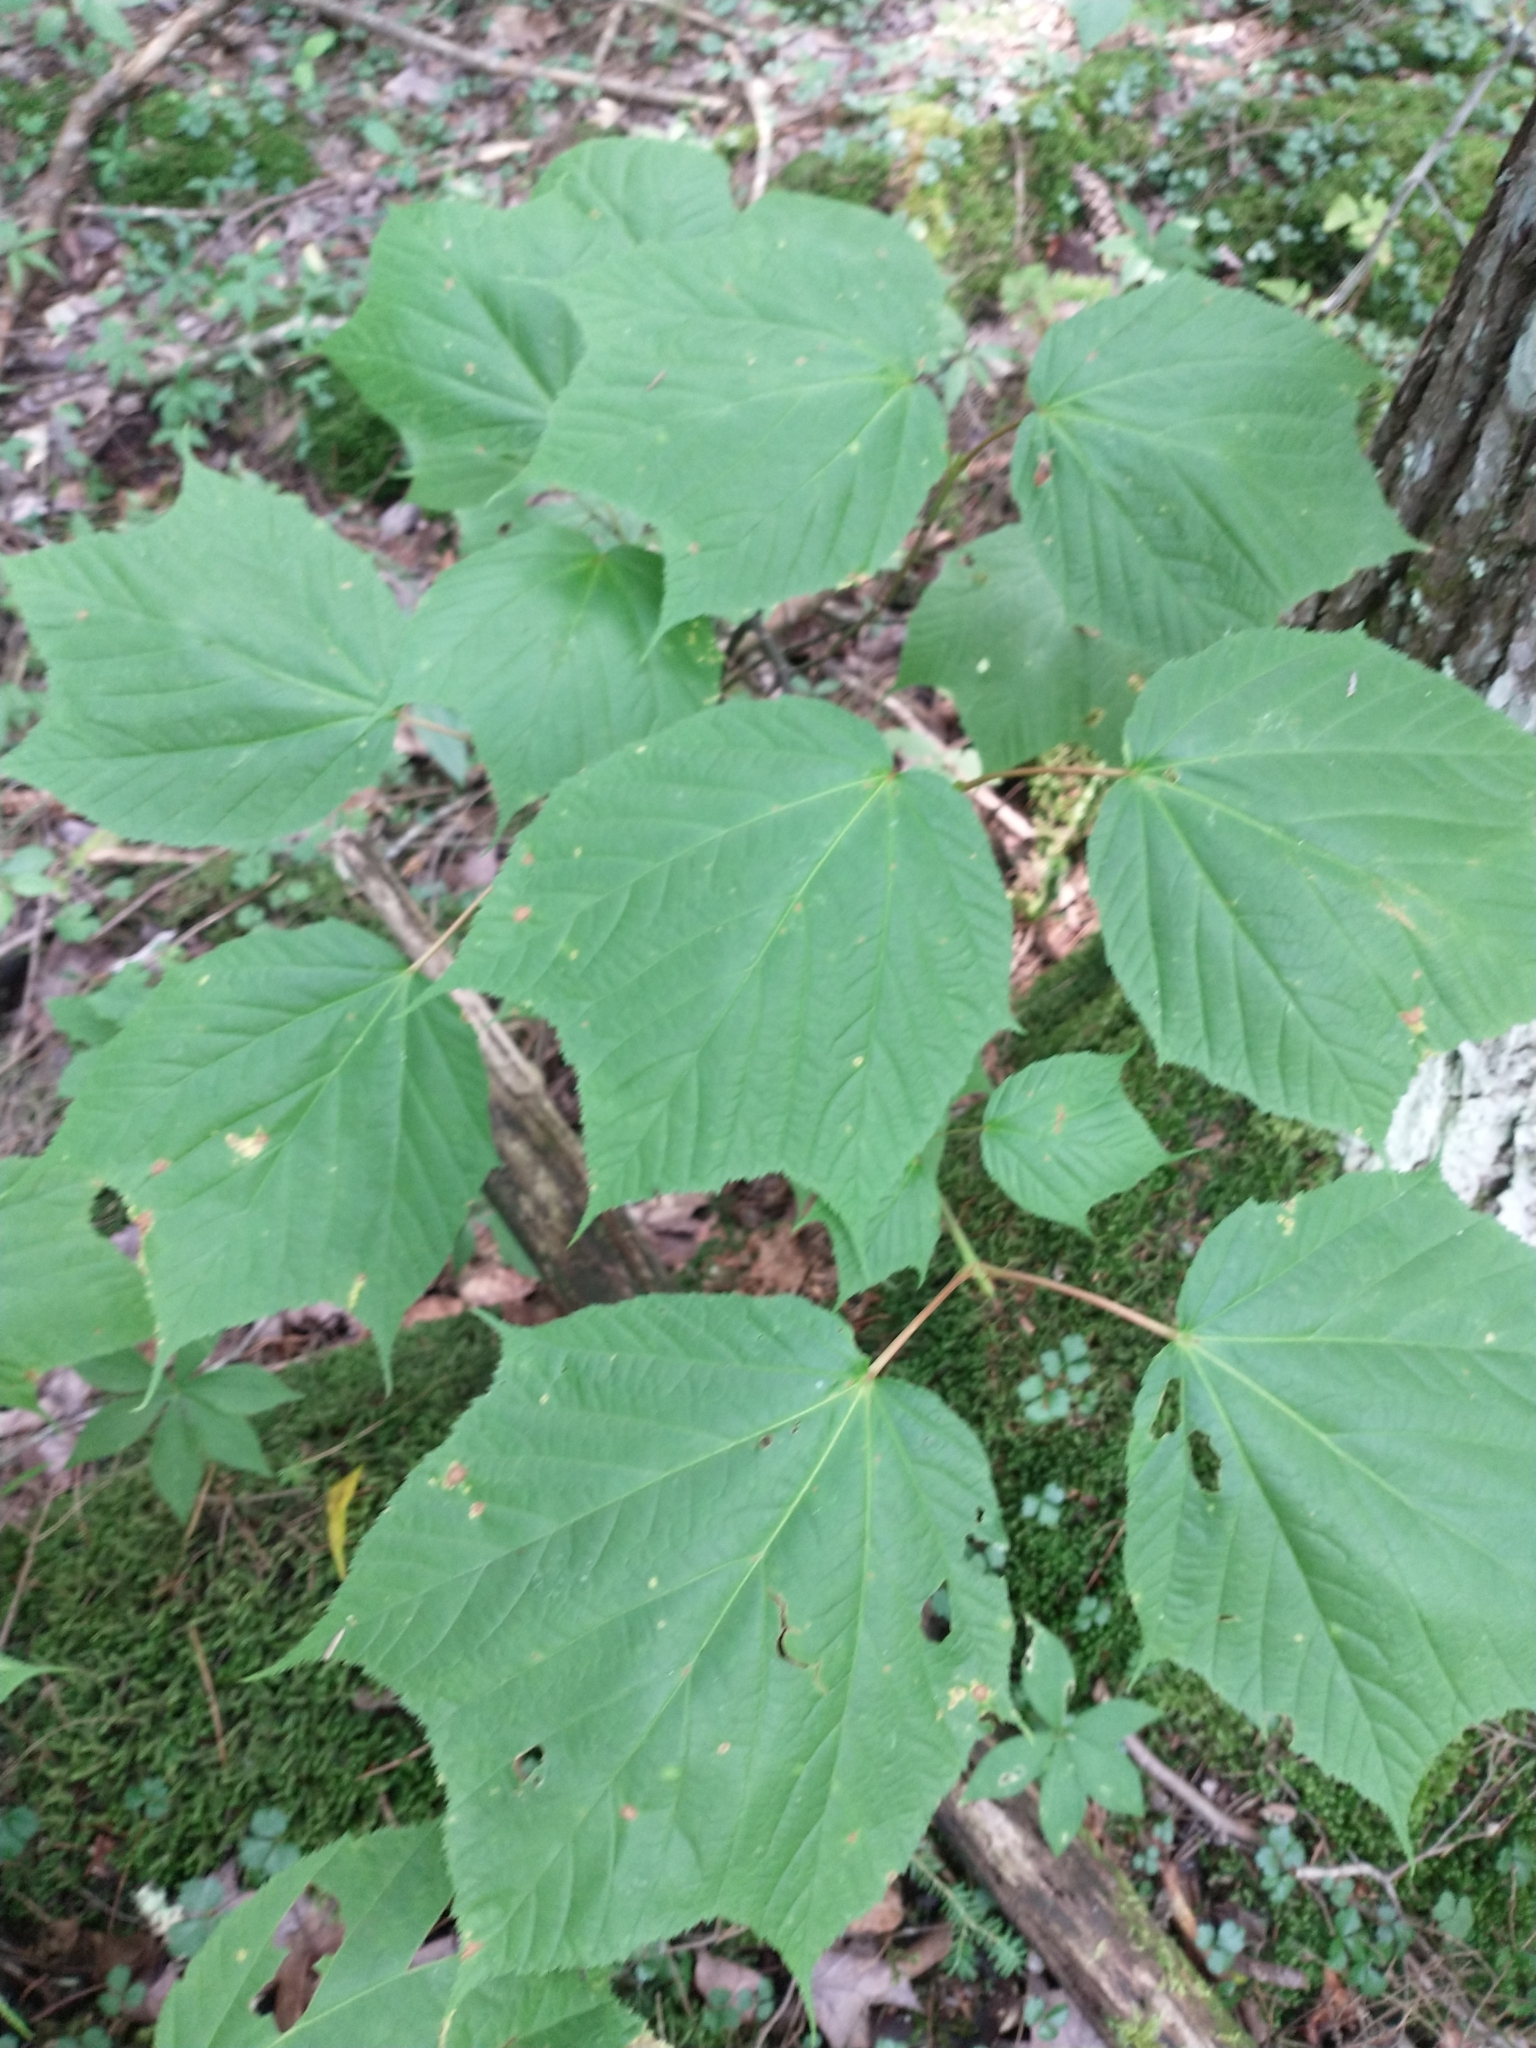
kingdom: Plantae
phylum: Tracheophyta
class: Magnoliopsida
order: Sapindales
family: Sapindaceae
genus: Acer
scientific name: Acer pensylvanicum
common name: Moosewood
